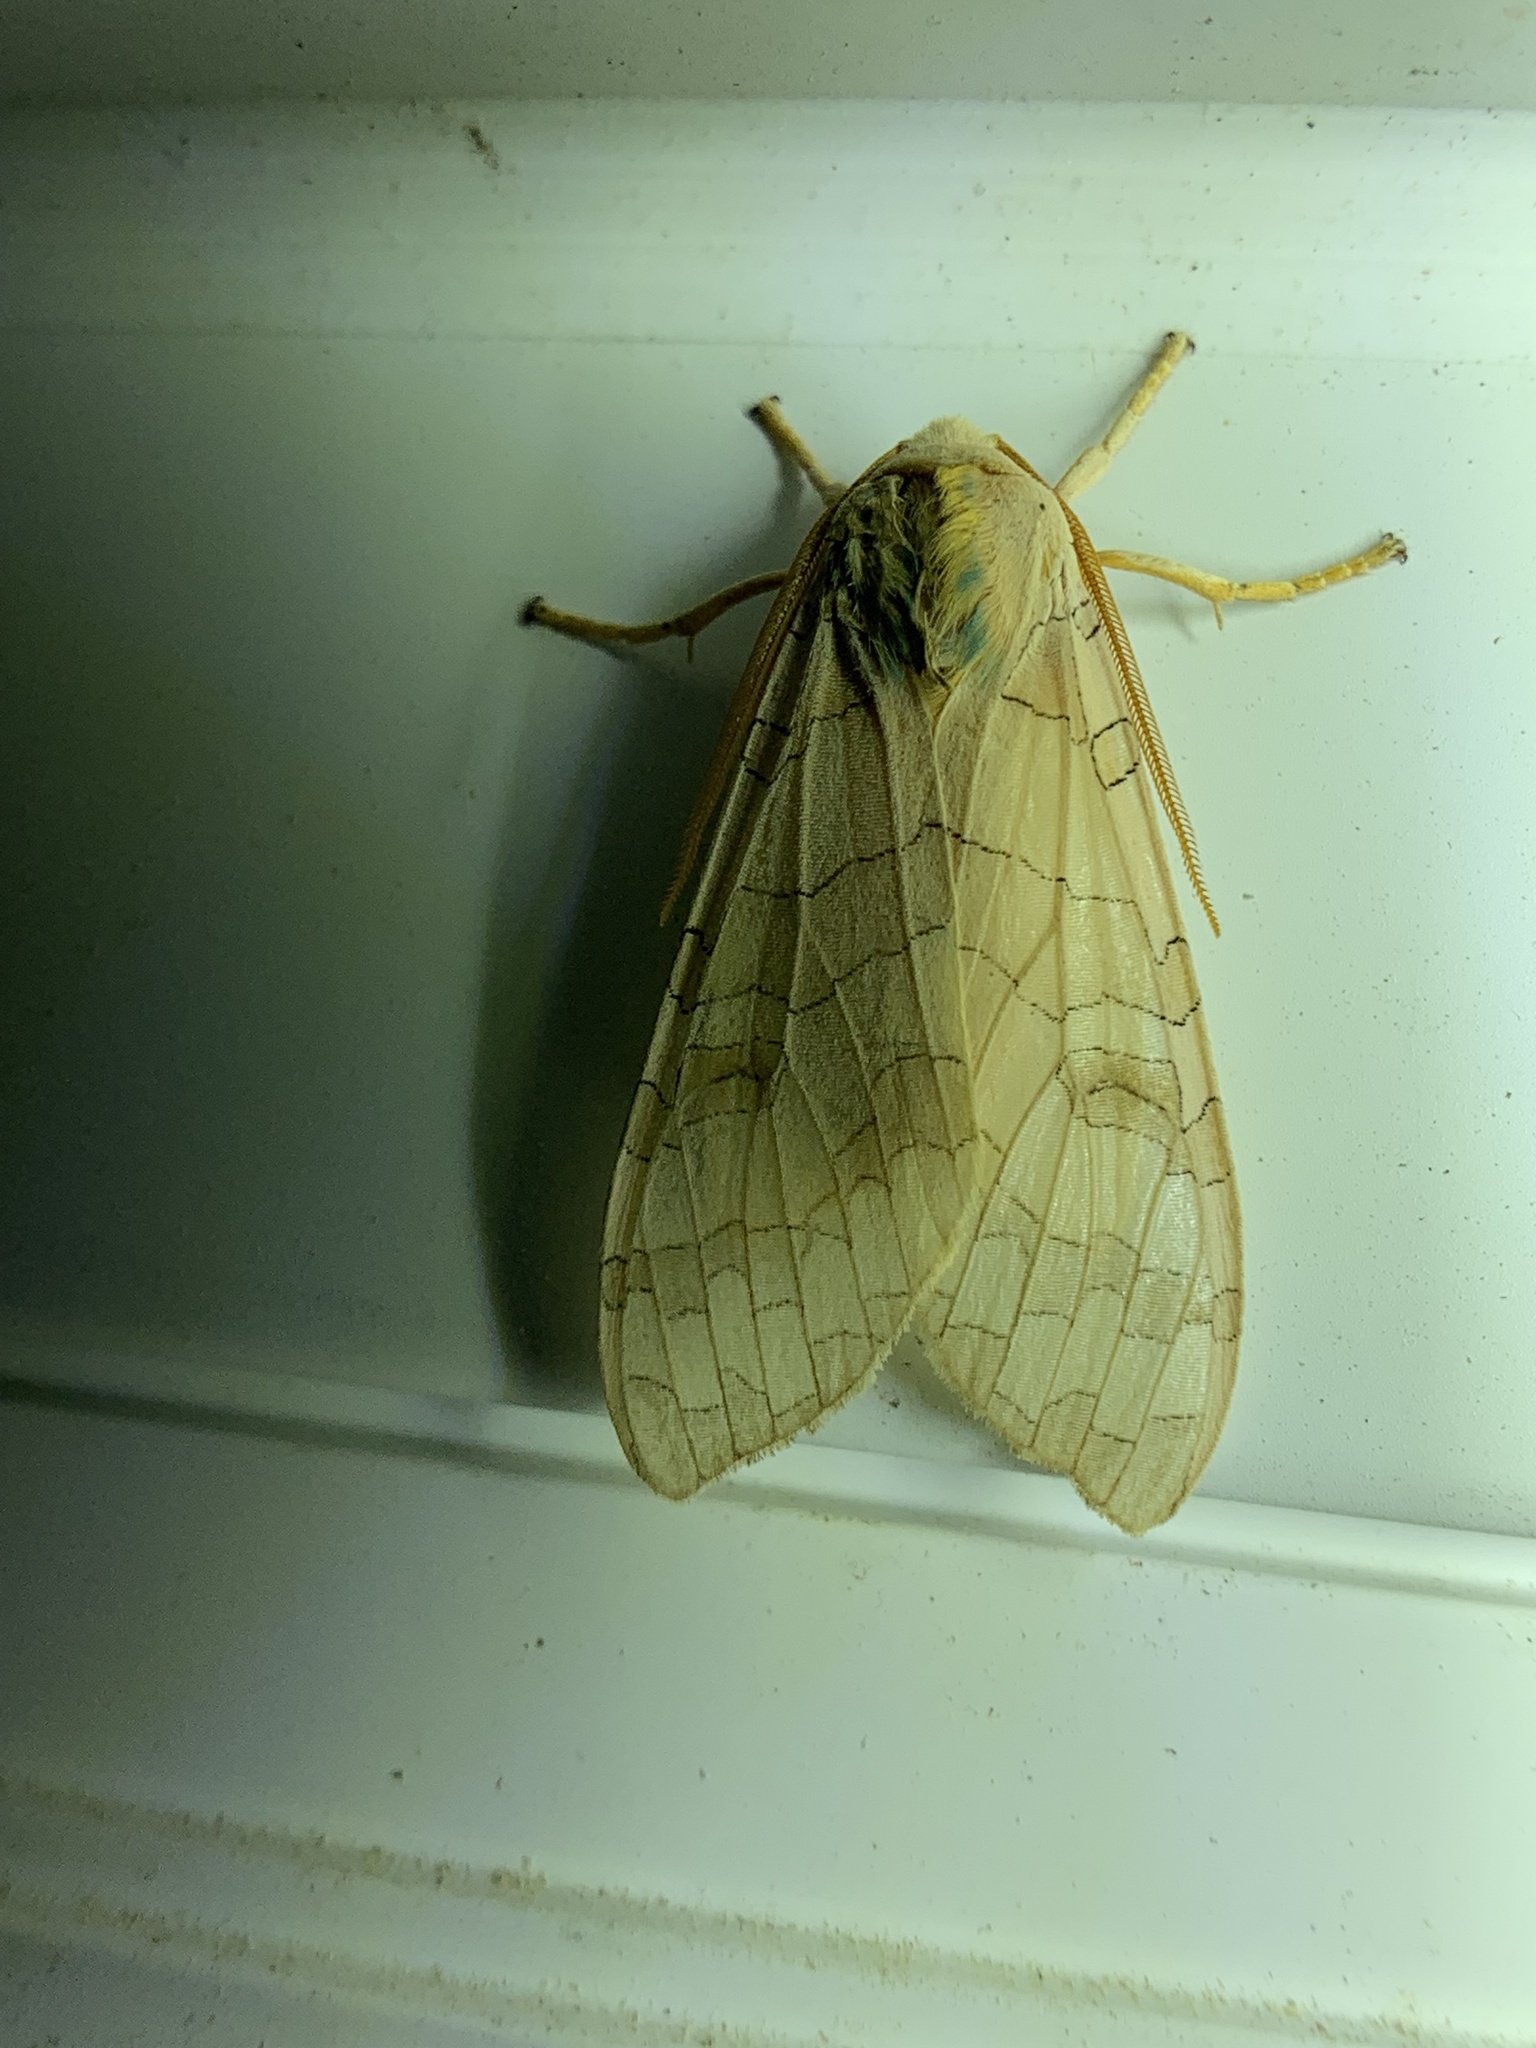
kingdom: Animalia
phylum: Arthropoda
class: Insecta
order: Lepidoptera
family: Erebidae
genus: Halysidota
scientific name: Halysidota
